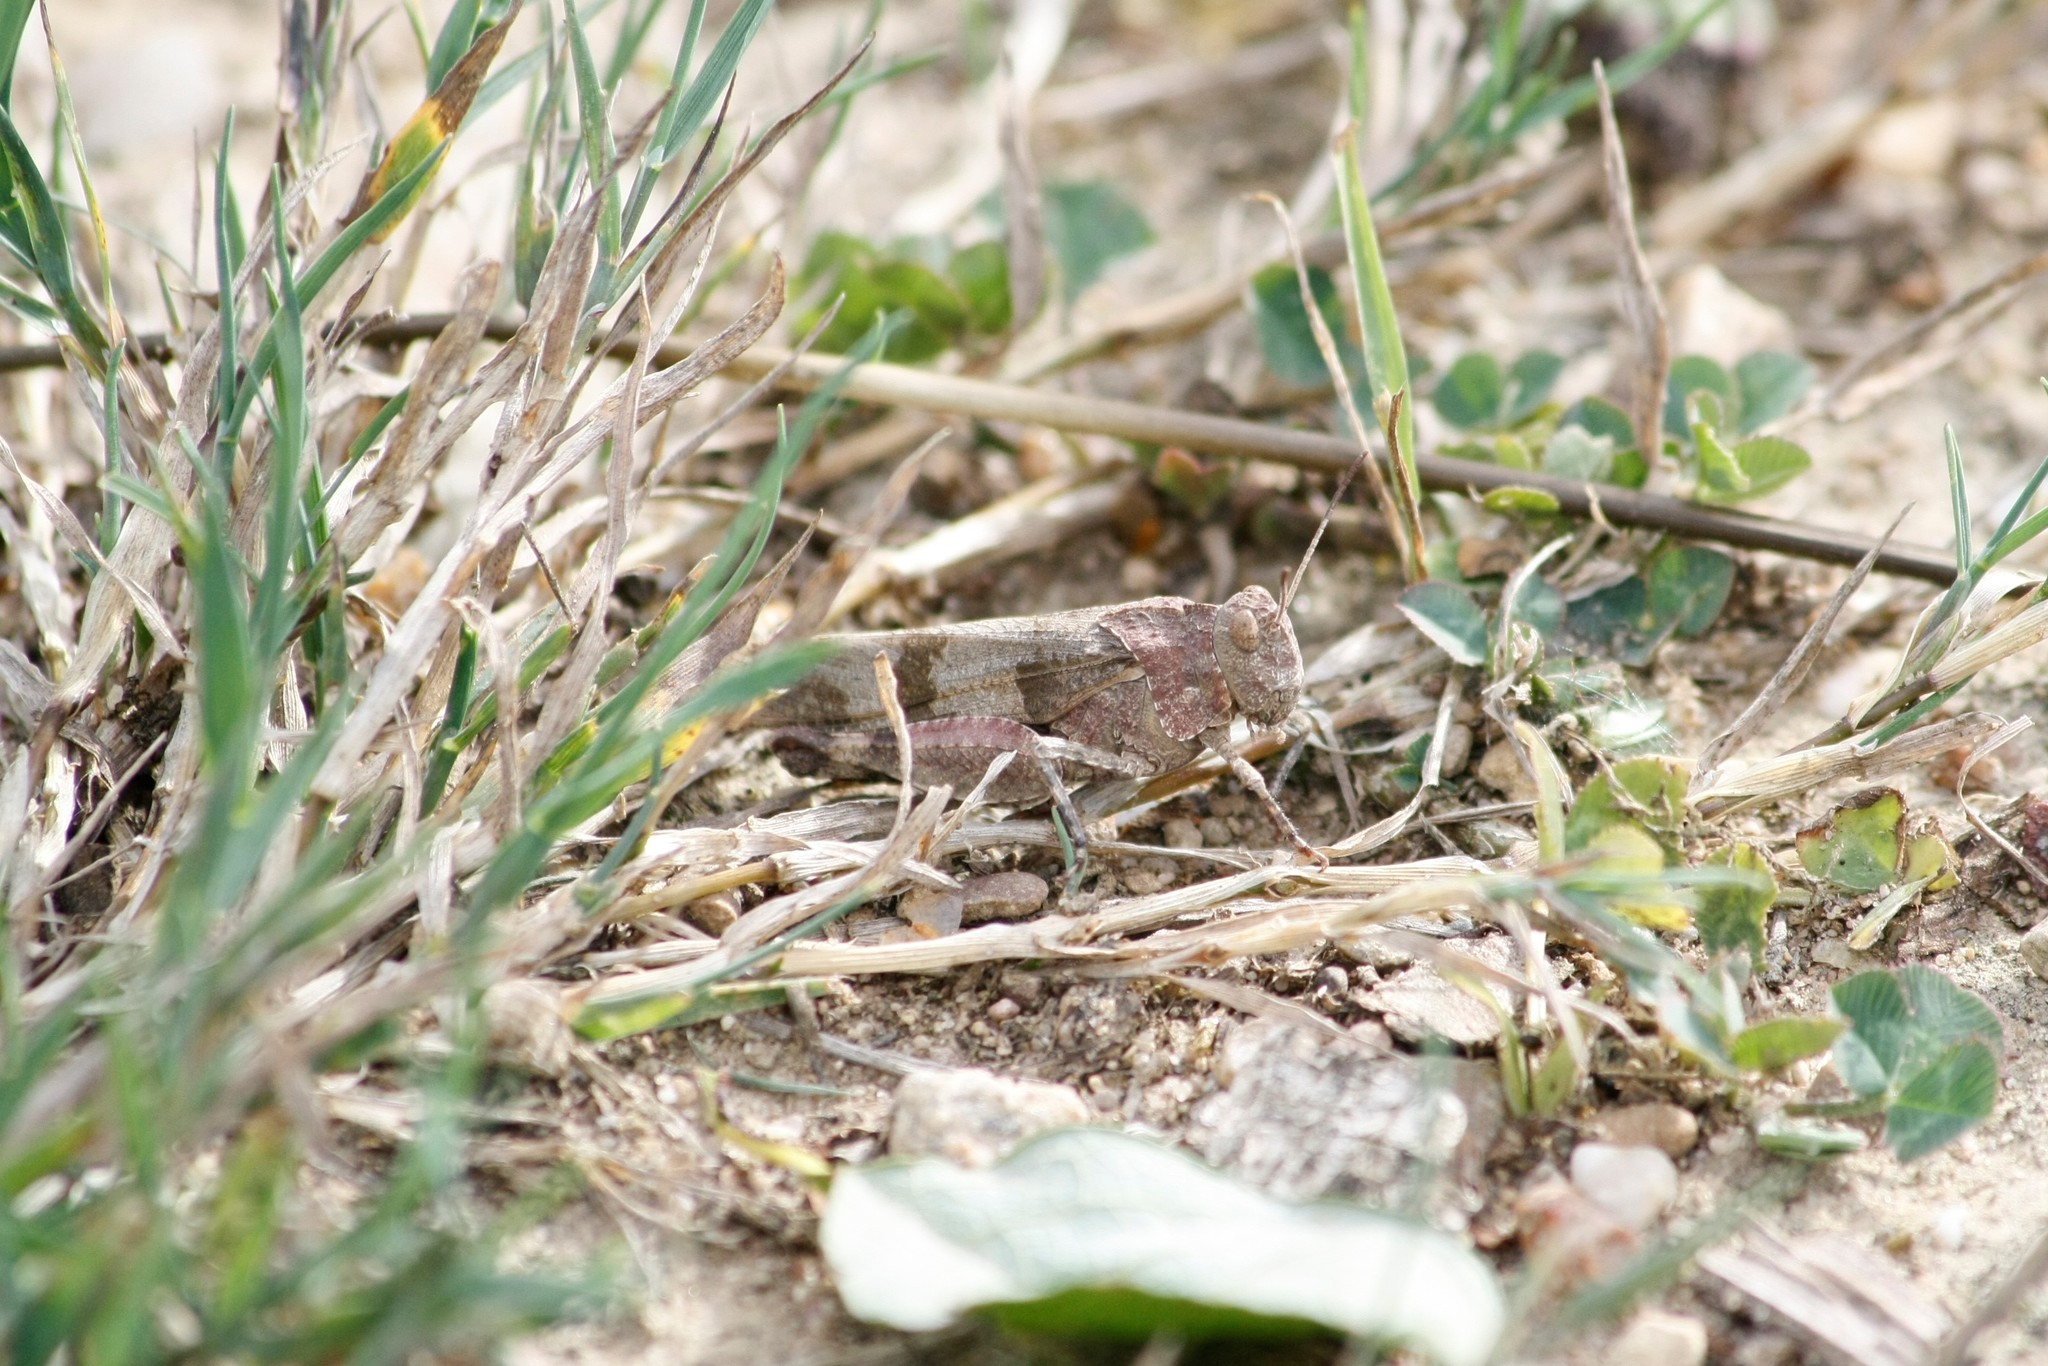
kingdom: Animalia
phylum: Arthropoda
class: Insecta
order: Orthoptera
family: Acrididae
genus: Oedipoda
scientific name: Oedipoda caerulescens
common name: Blue-winged grasshopper
